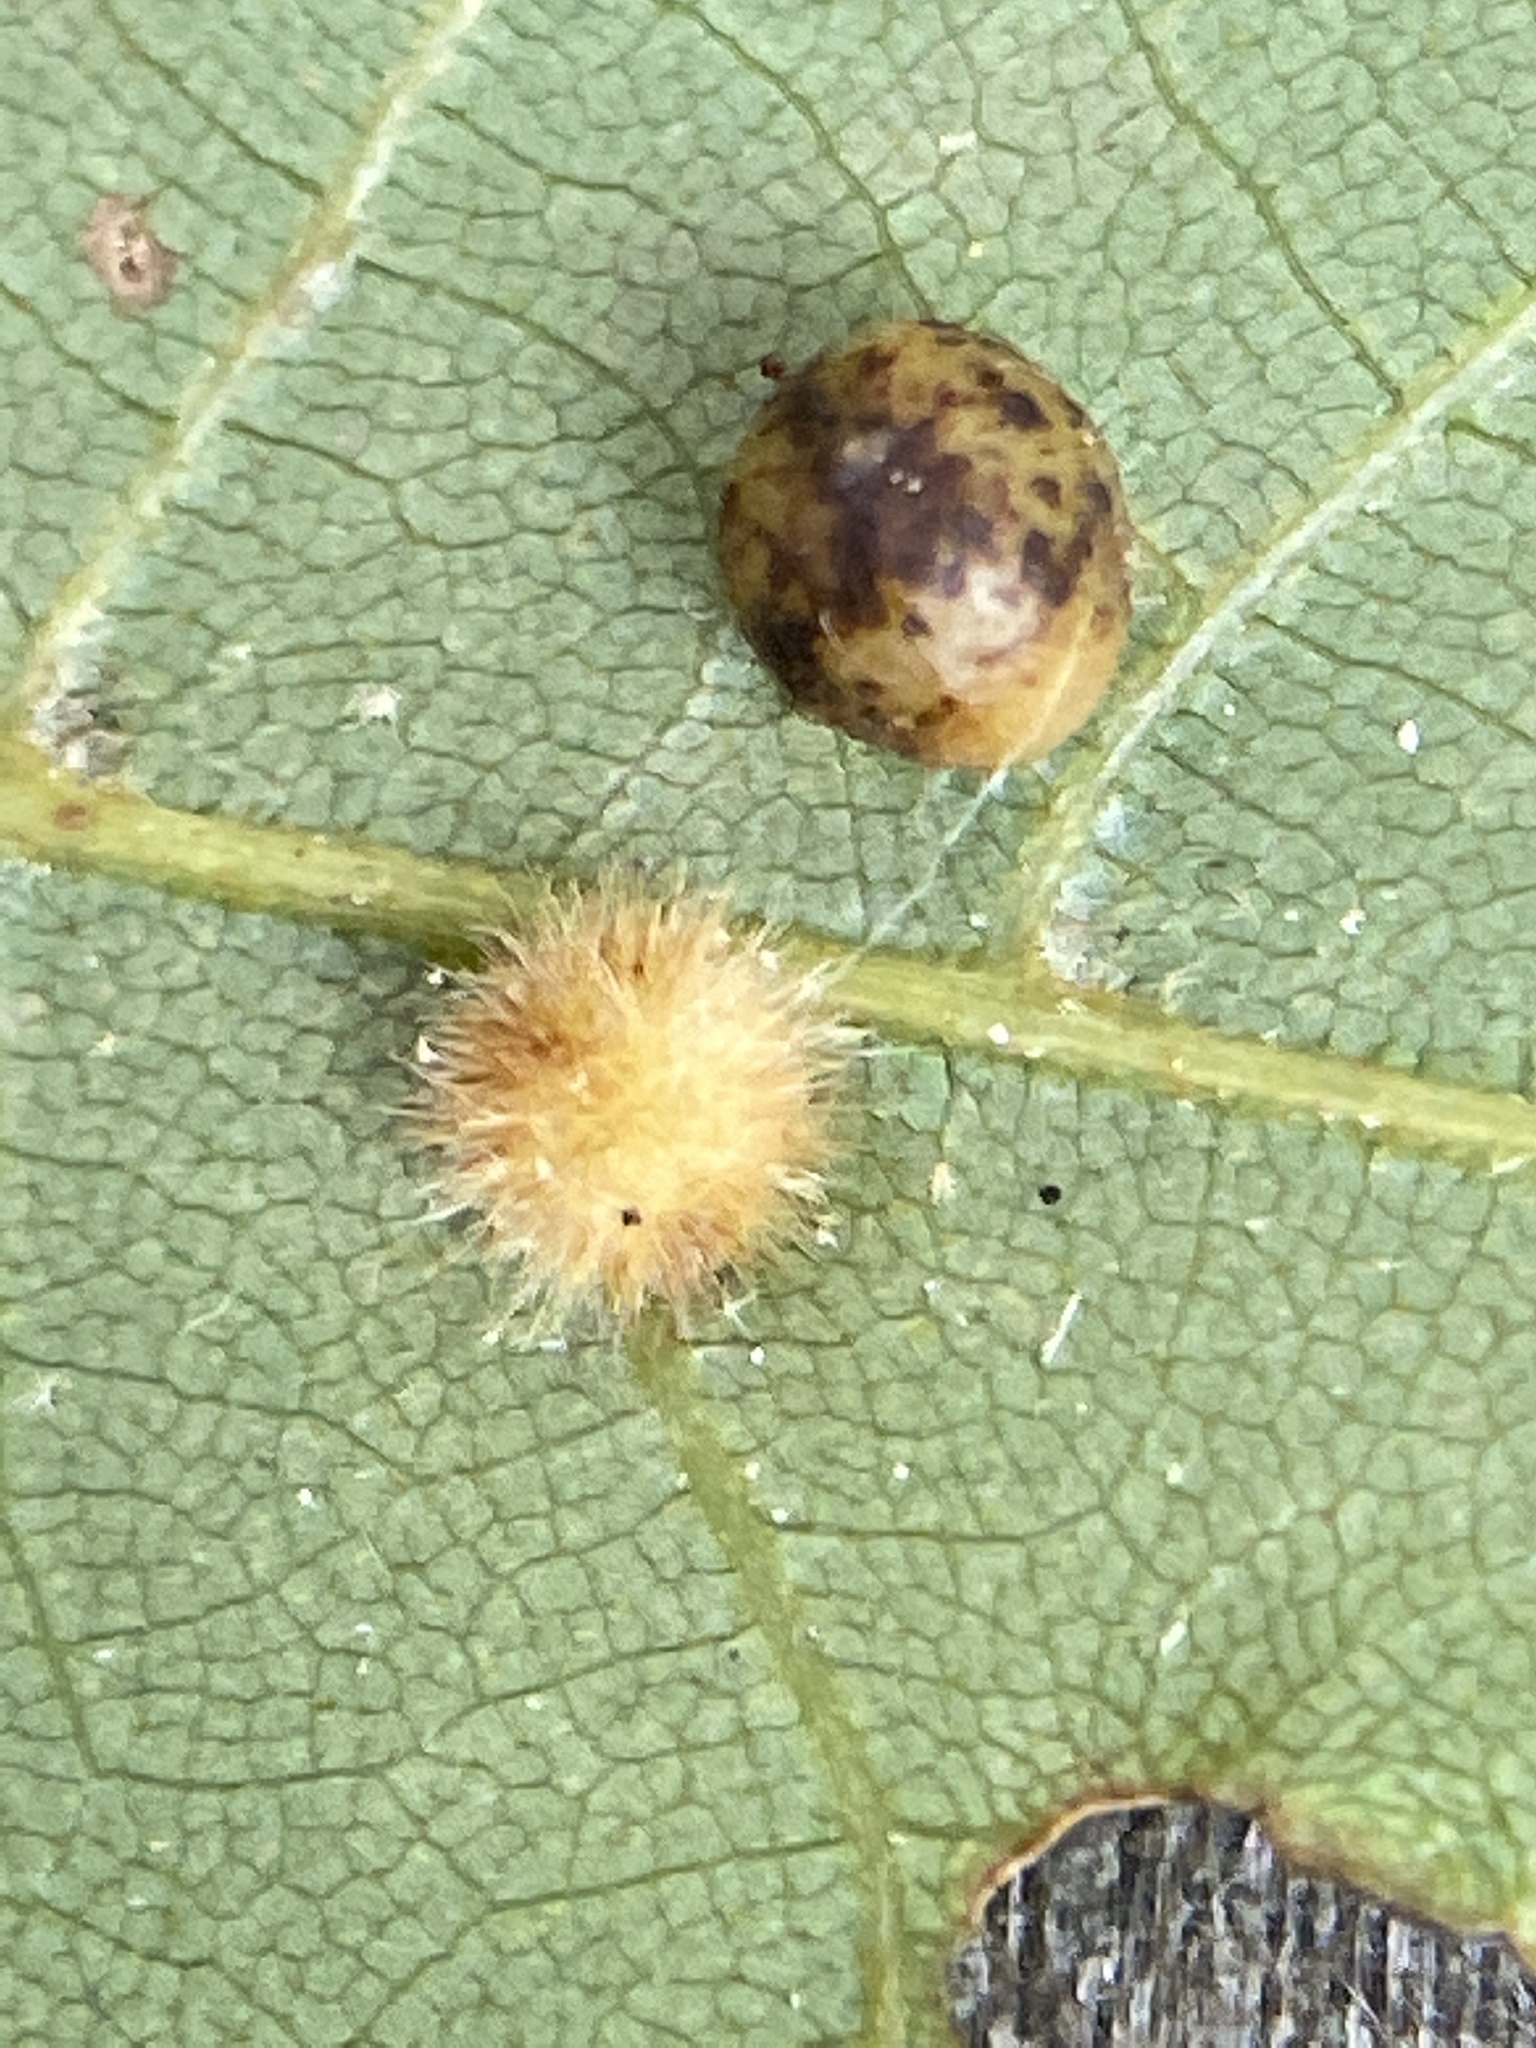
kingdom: Animalia
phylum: Arthropoda
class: Insecta
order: Diptera
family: Cecidomyiidae
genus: Caryomyia
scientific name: Caryomyia spherica
